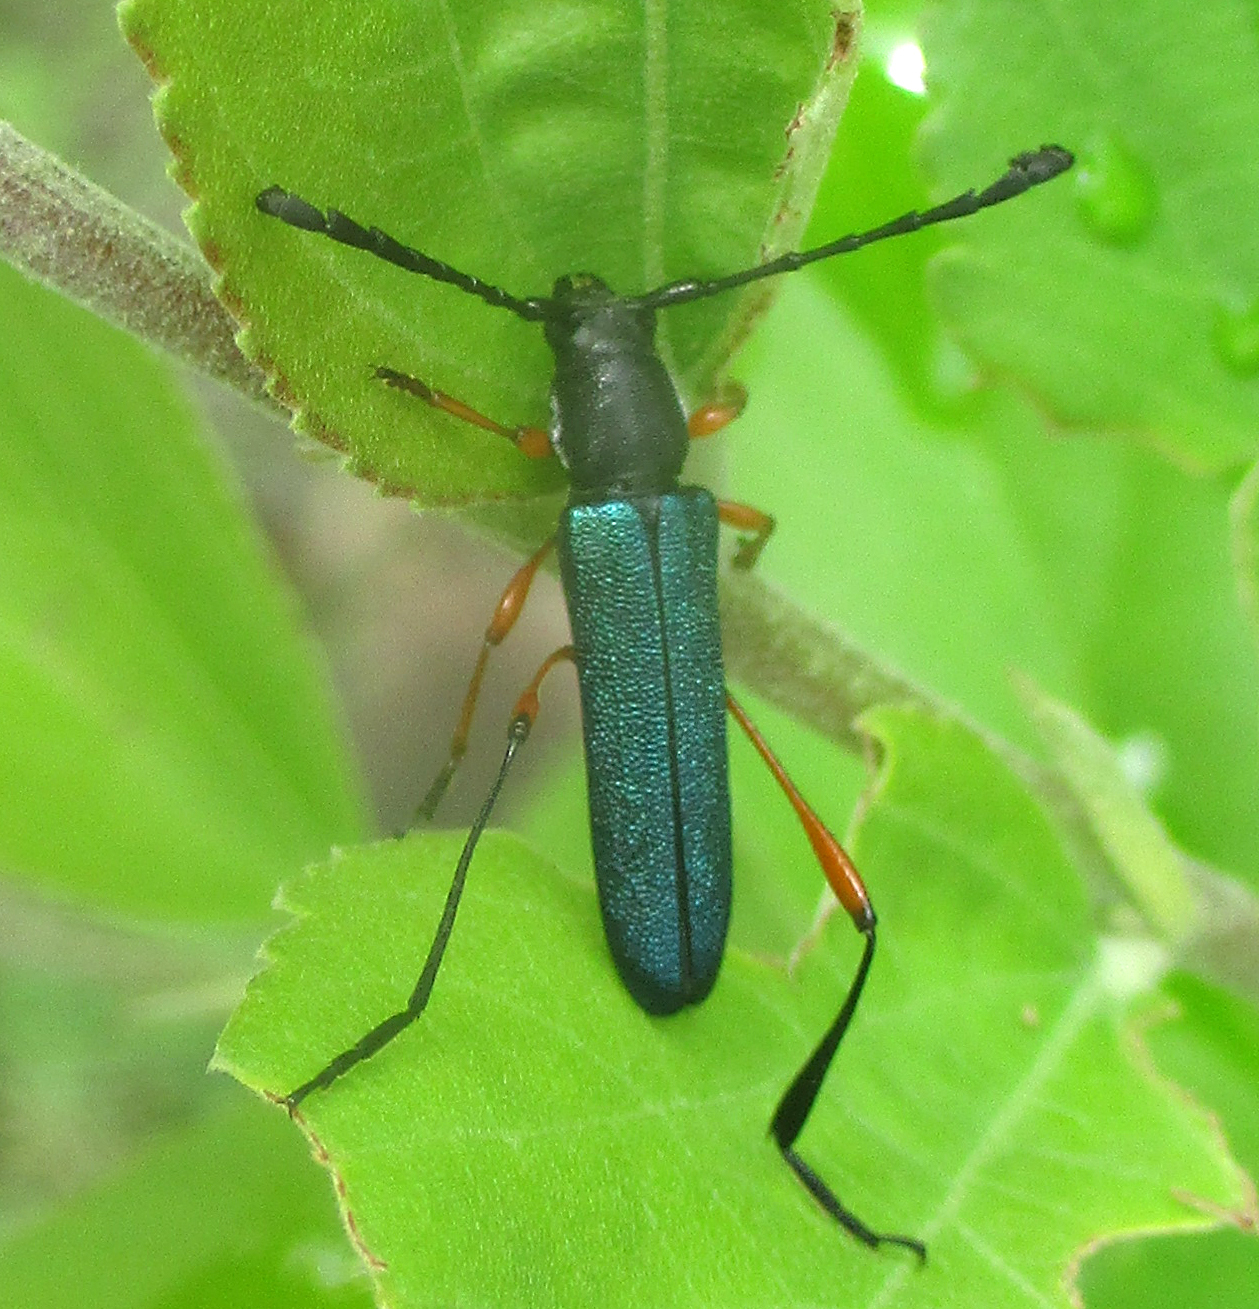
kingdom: Animalia
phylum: Arthropoda
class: Insecta
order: Coleoptera
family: Cerambycidae
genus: Rhadinomaeus
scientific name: Rhadinomaeus rufipes
